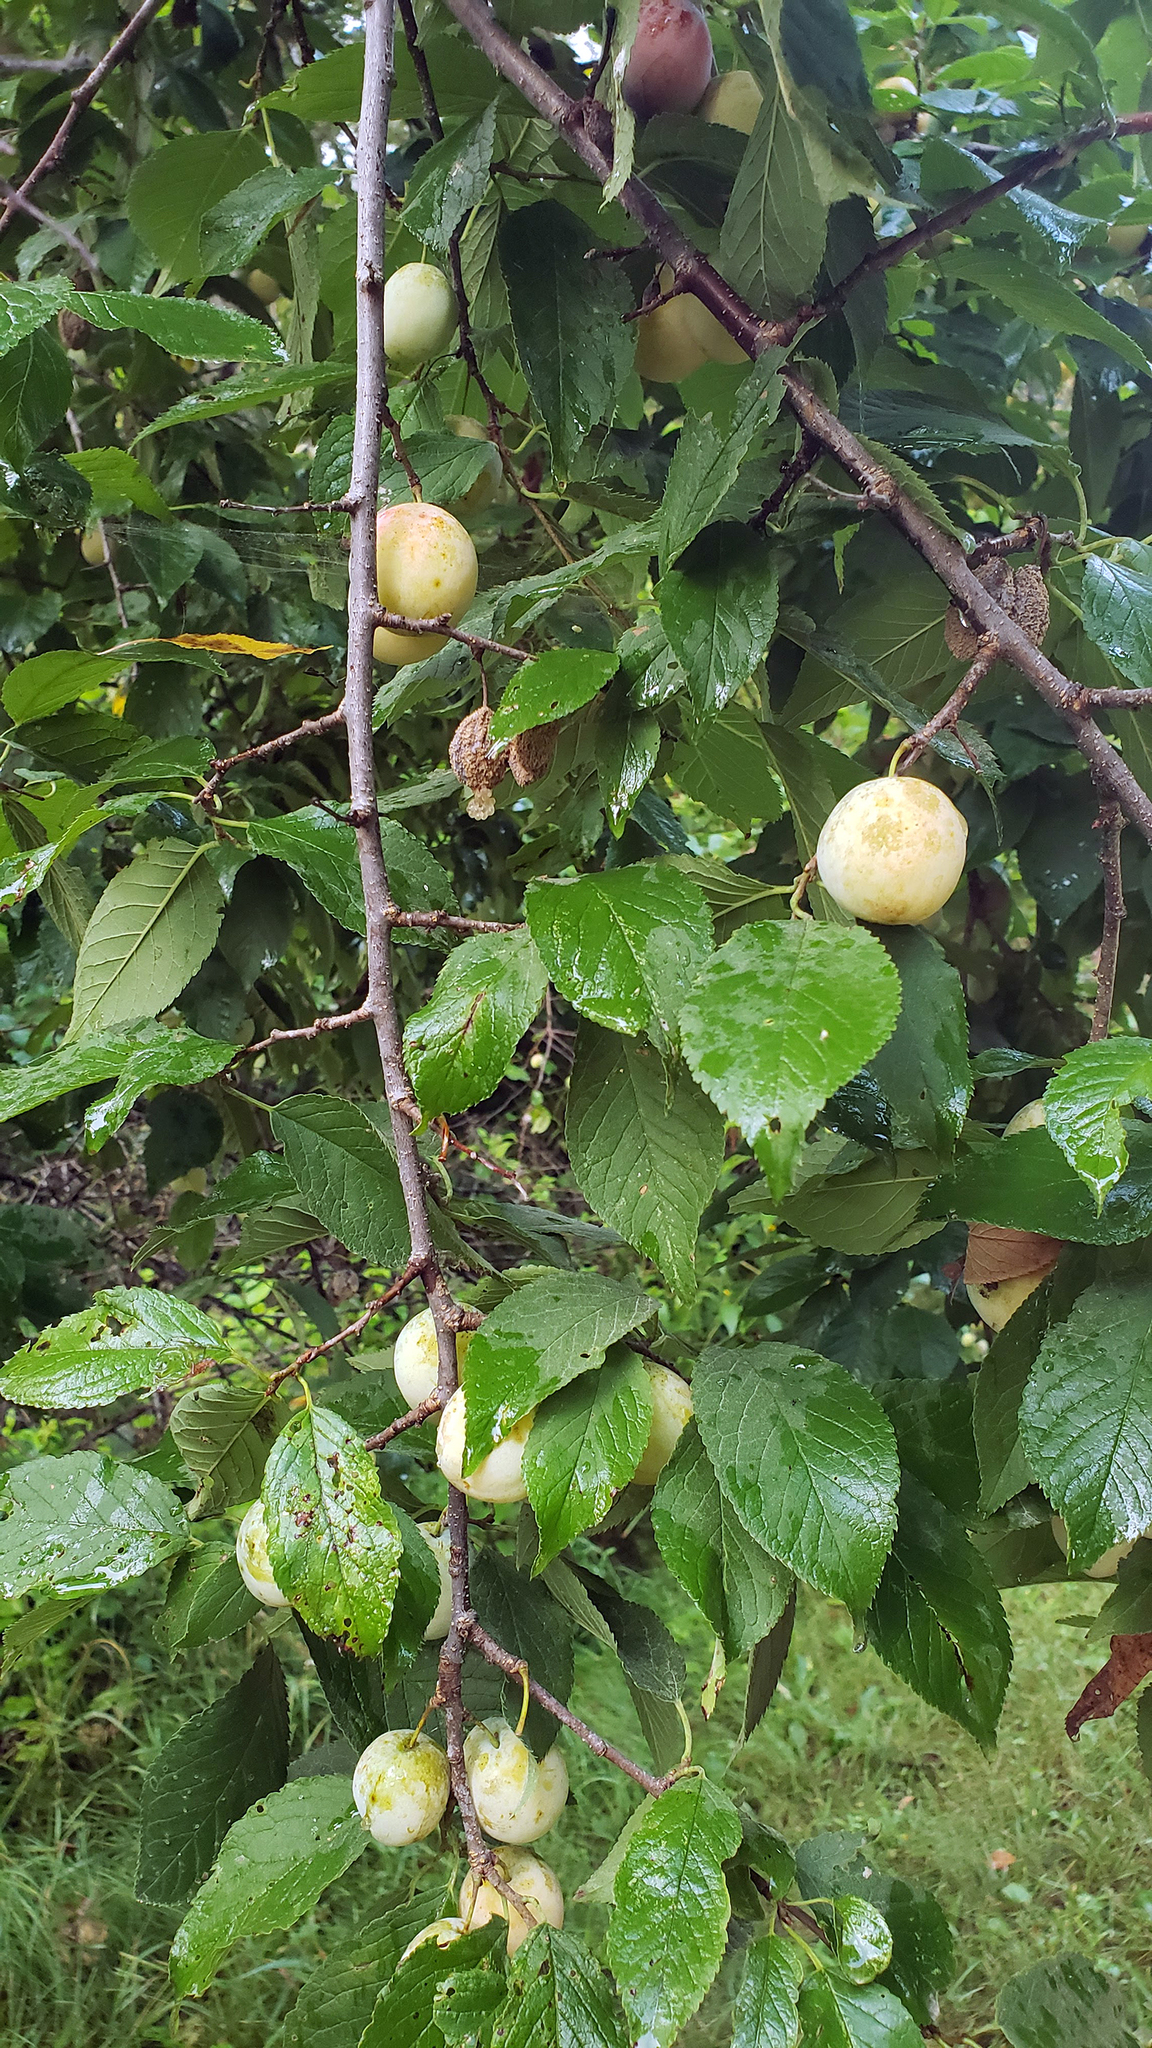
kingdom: Plantae
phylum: Tracheophyta
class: Magnoliopsida
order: Rosales
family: Rosaceae
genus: Prunus
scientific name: Prunus americana
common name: American plum
